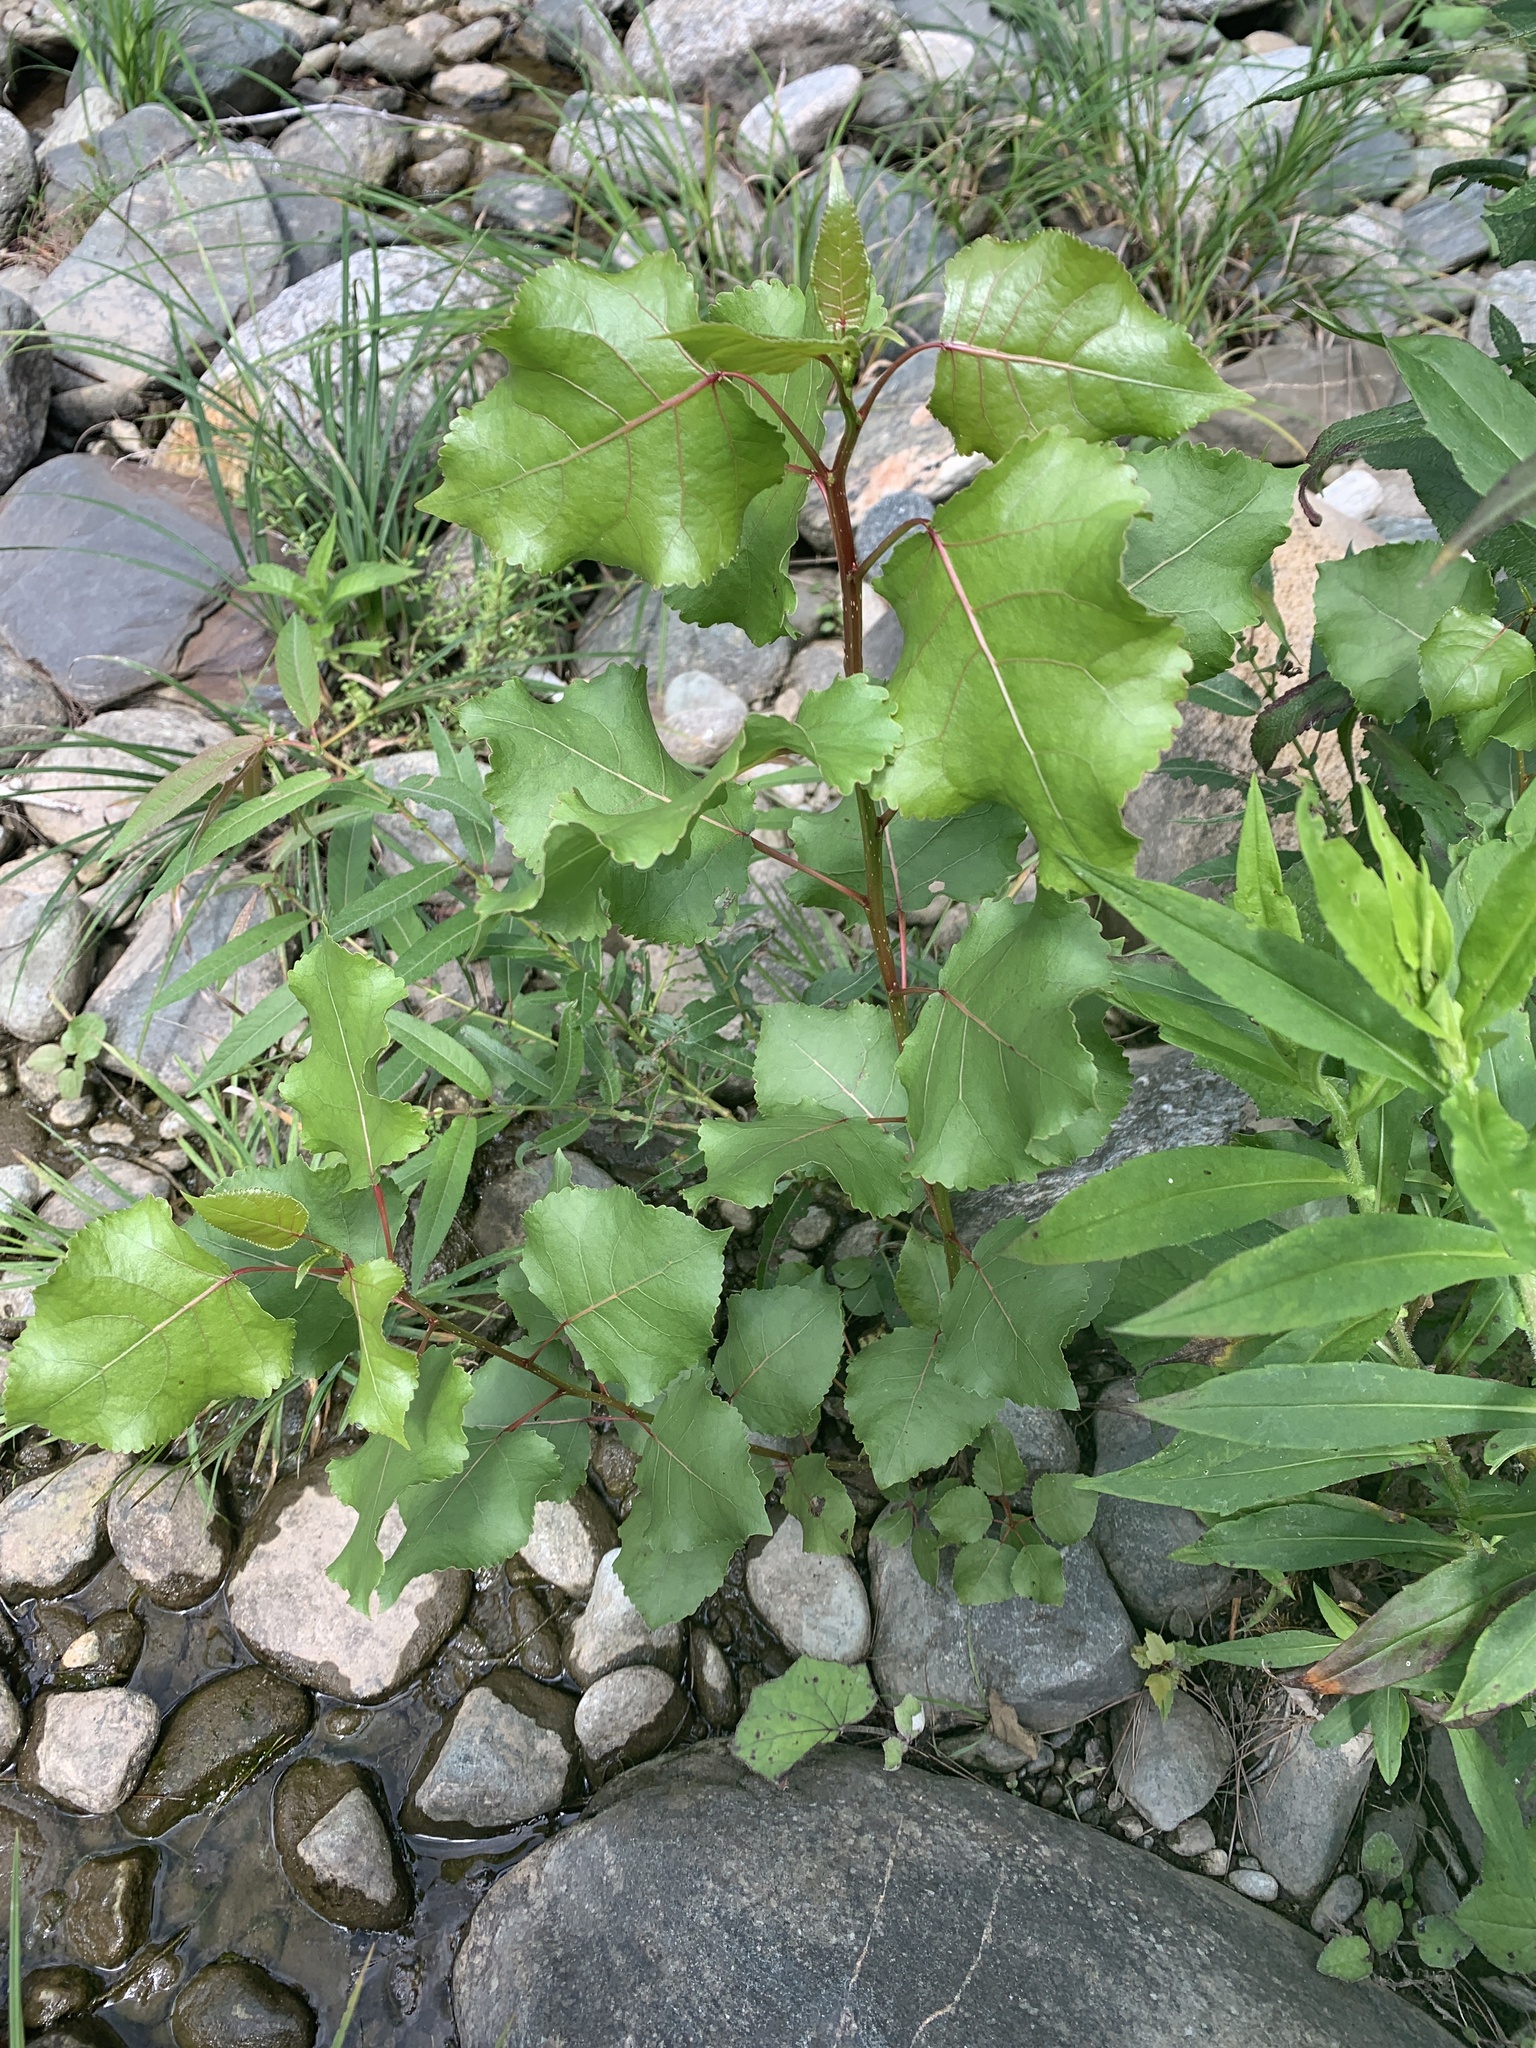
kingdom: Plantae
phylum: Tracheophyta
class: Magnoliopsida
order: Malpighiales
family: Salicaceae
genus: Populus
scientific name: Populus deltoides
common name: Eastern cottonwood
